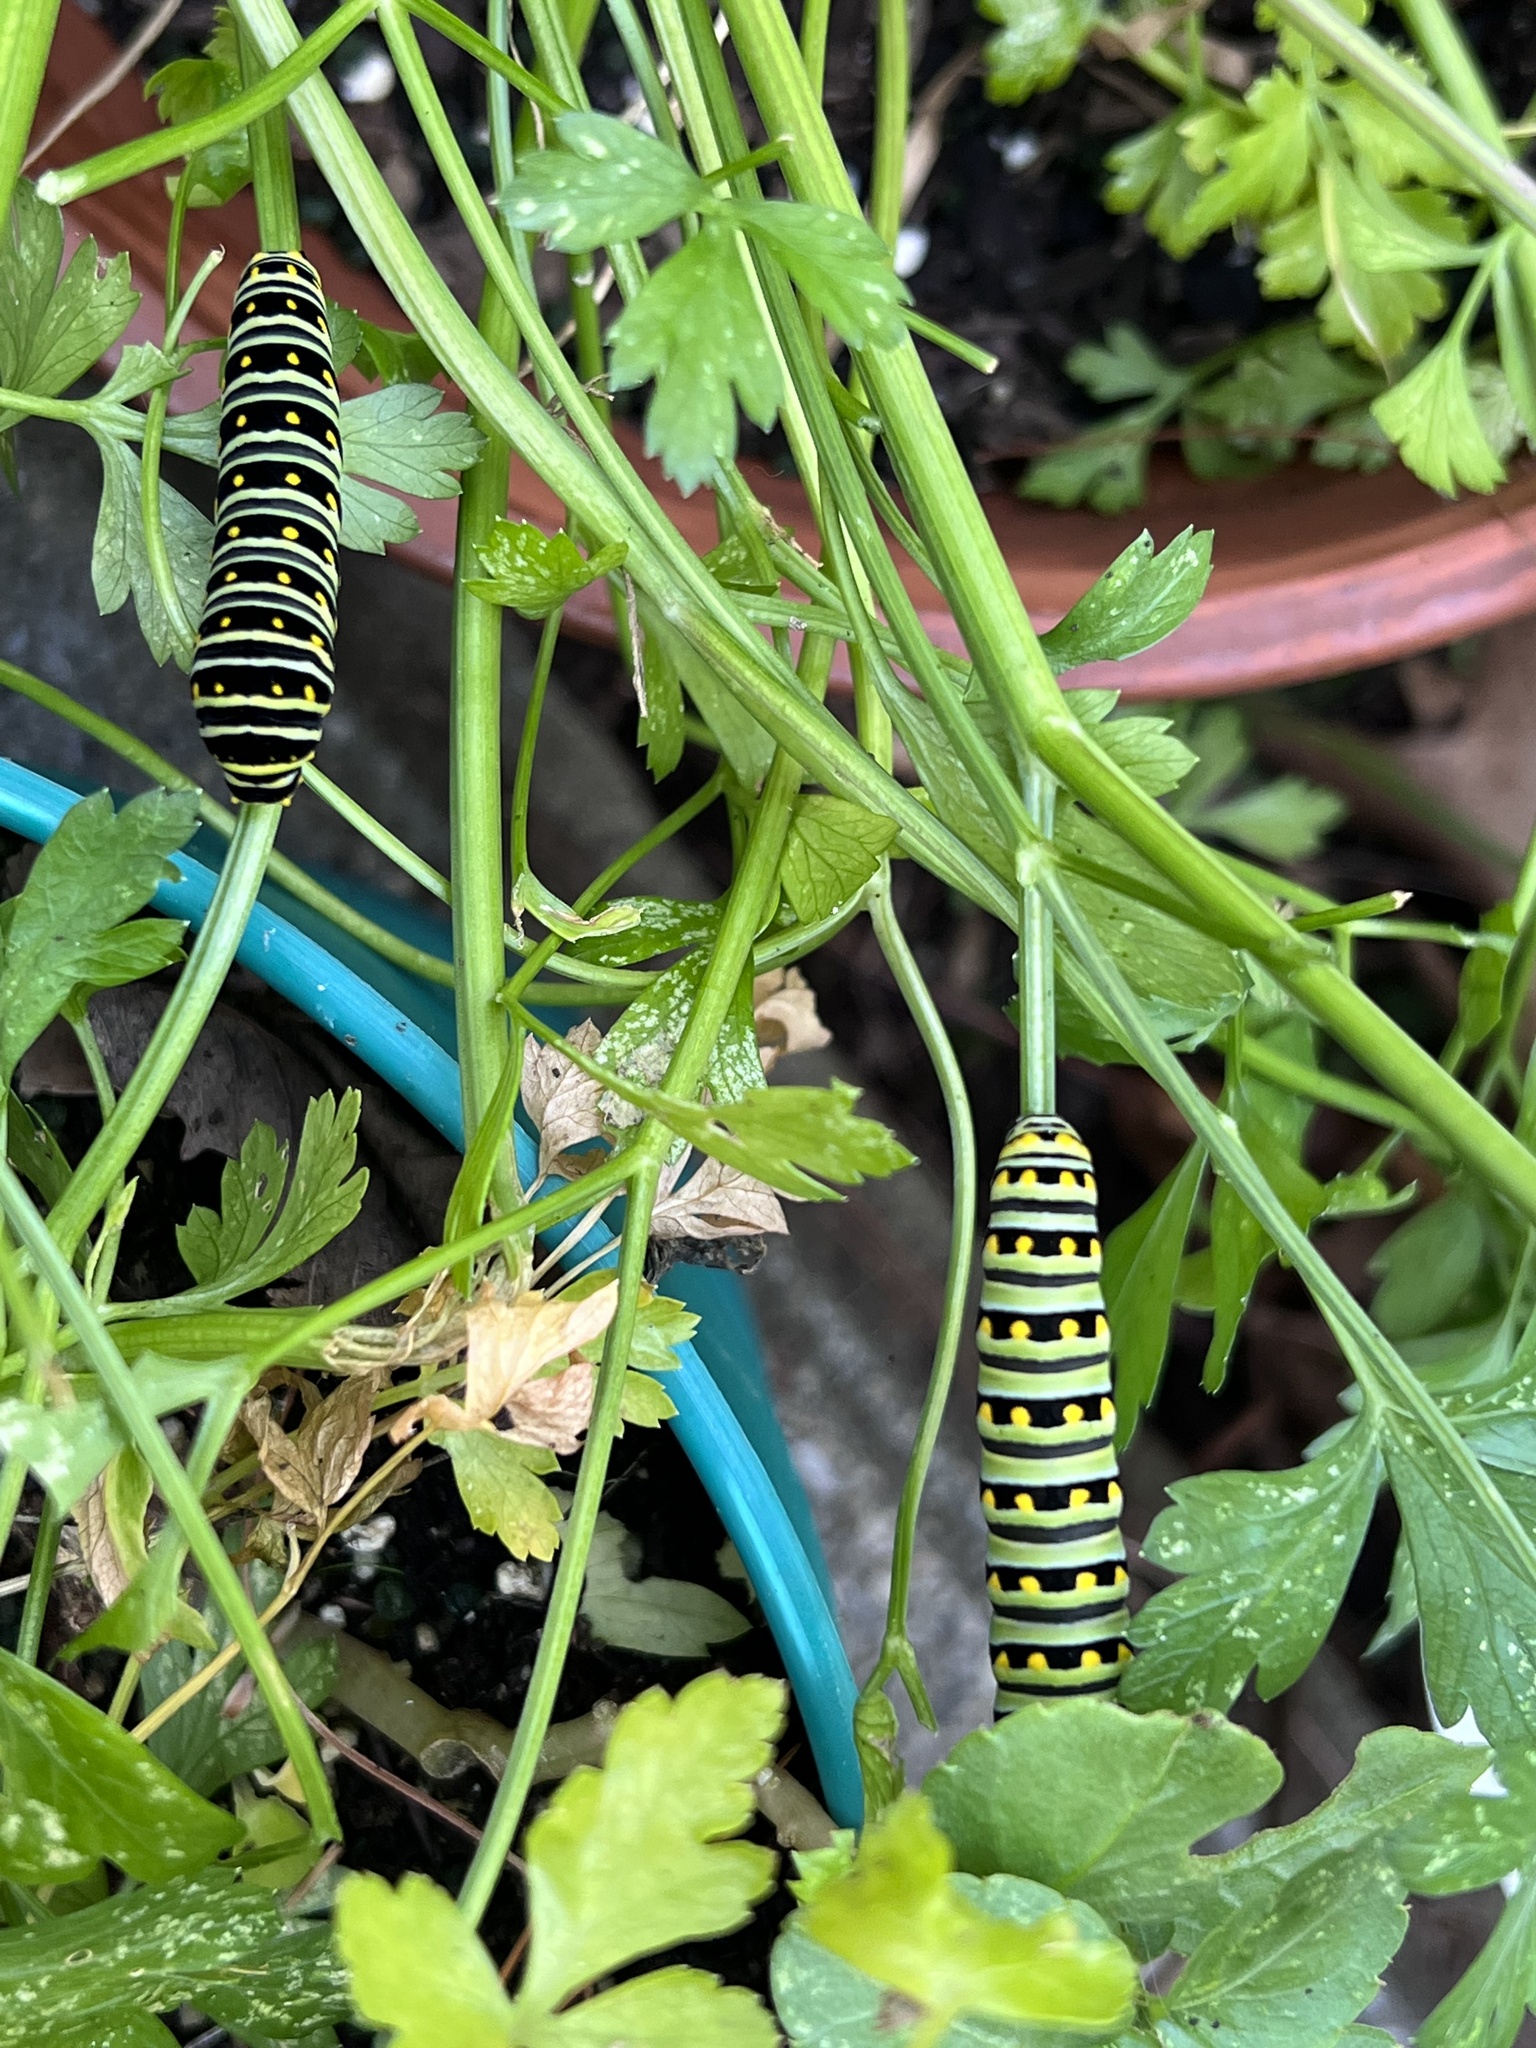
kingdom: Animalia
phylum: Arthropoda
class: Insecta
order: Lepidoptera
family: Papilionidae
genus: Papilio
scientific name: Papilio polyxenes
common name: Black swallowtail
